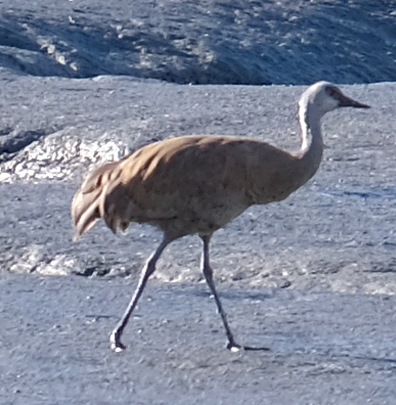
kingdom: Animalia
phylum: Chordata
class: Aves
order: Gruiformes
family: Gruidae
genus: Grus
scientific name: Grus canadensis
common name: Sandhill crane
